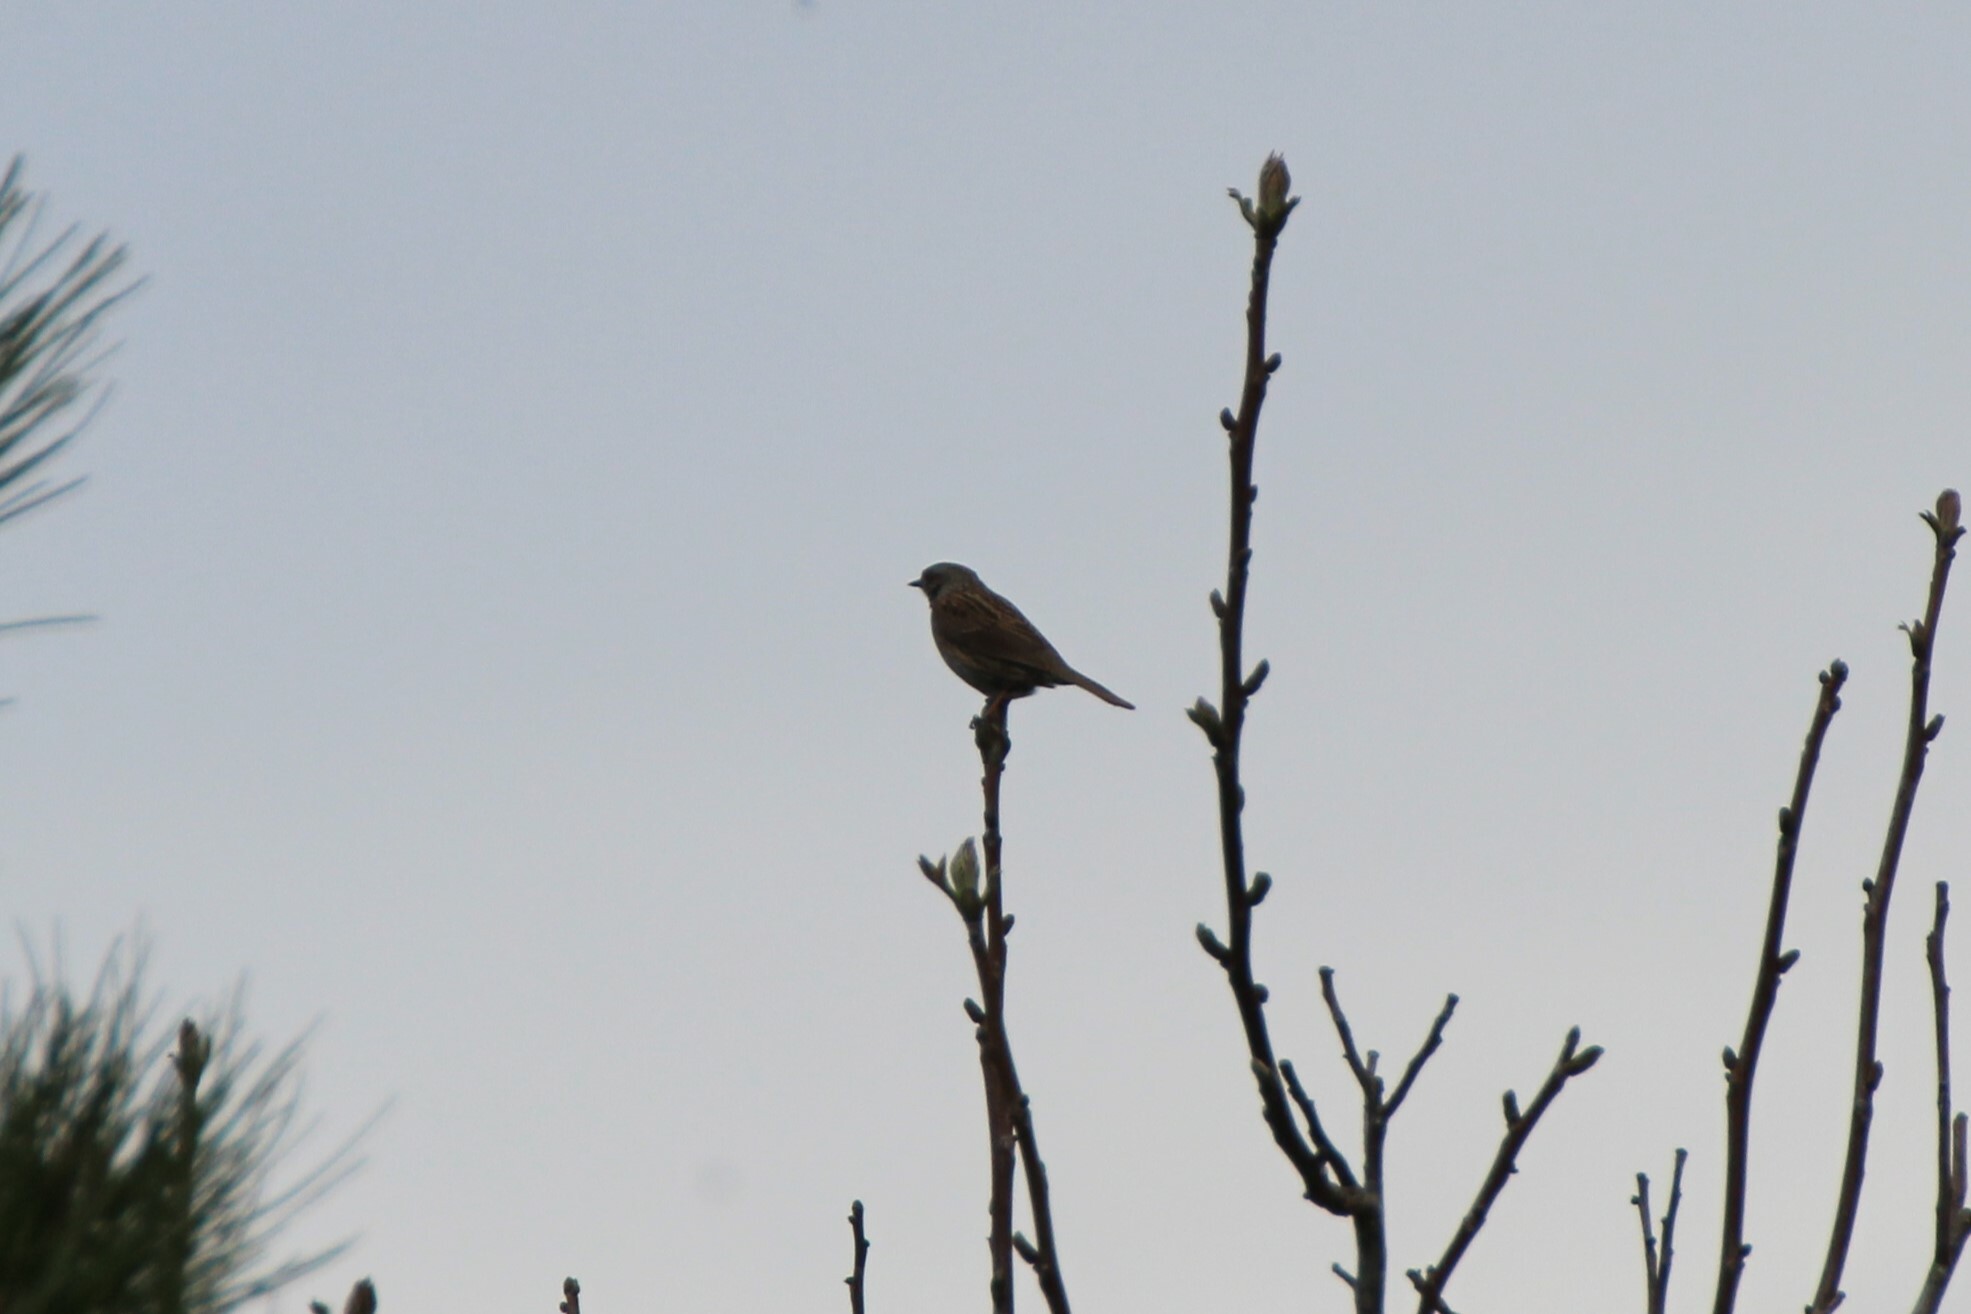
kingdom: Animalia
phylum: Chordata
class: Aves
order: Passeriformes
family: Prunellidae
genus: Prunella
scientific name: Prunella modularis
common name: Dunnock
